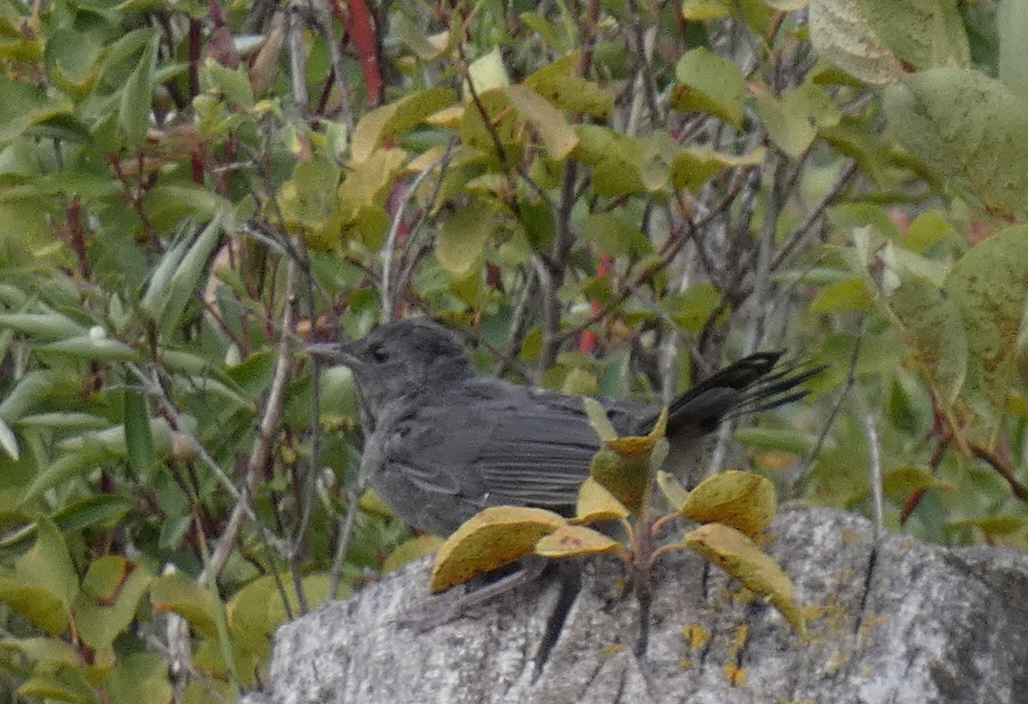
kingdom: Animalia
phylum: Chordata
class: Aves
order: Passeriformes
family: Mimidae
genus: Dumetella
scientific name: Dumetella carolinensis
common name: Gray catbird
